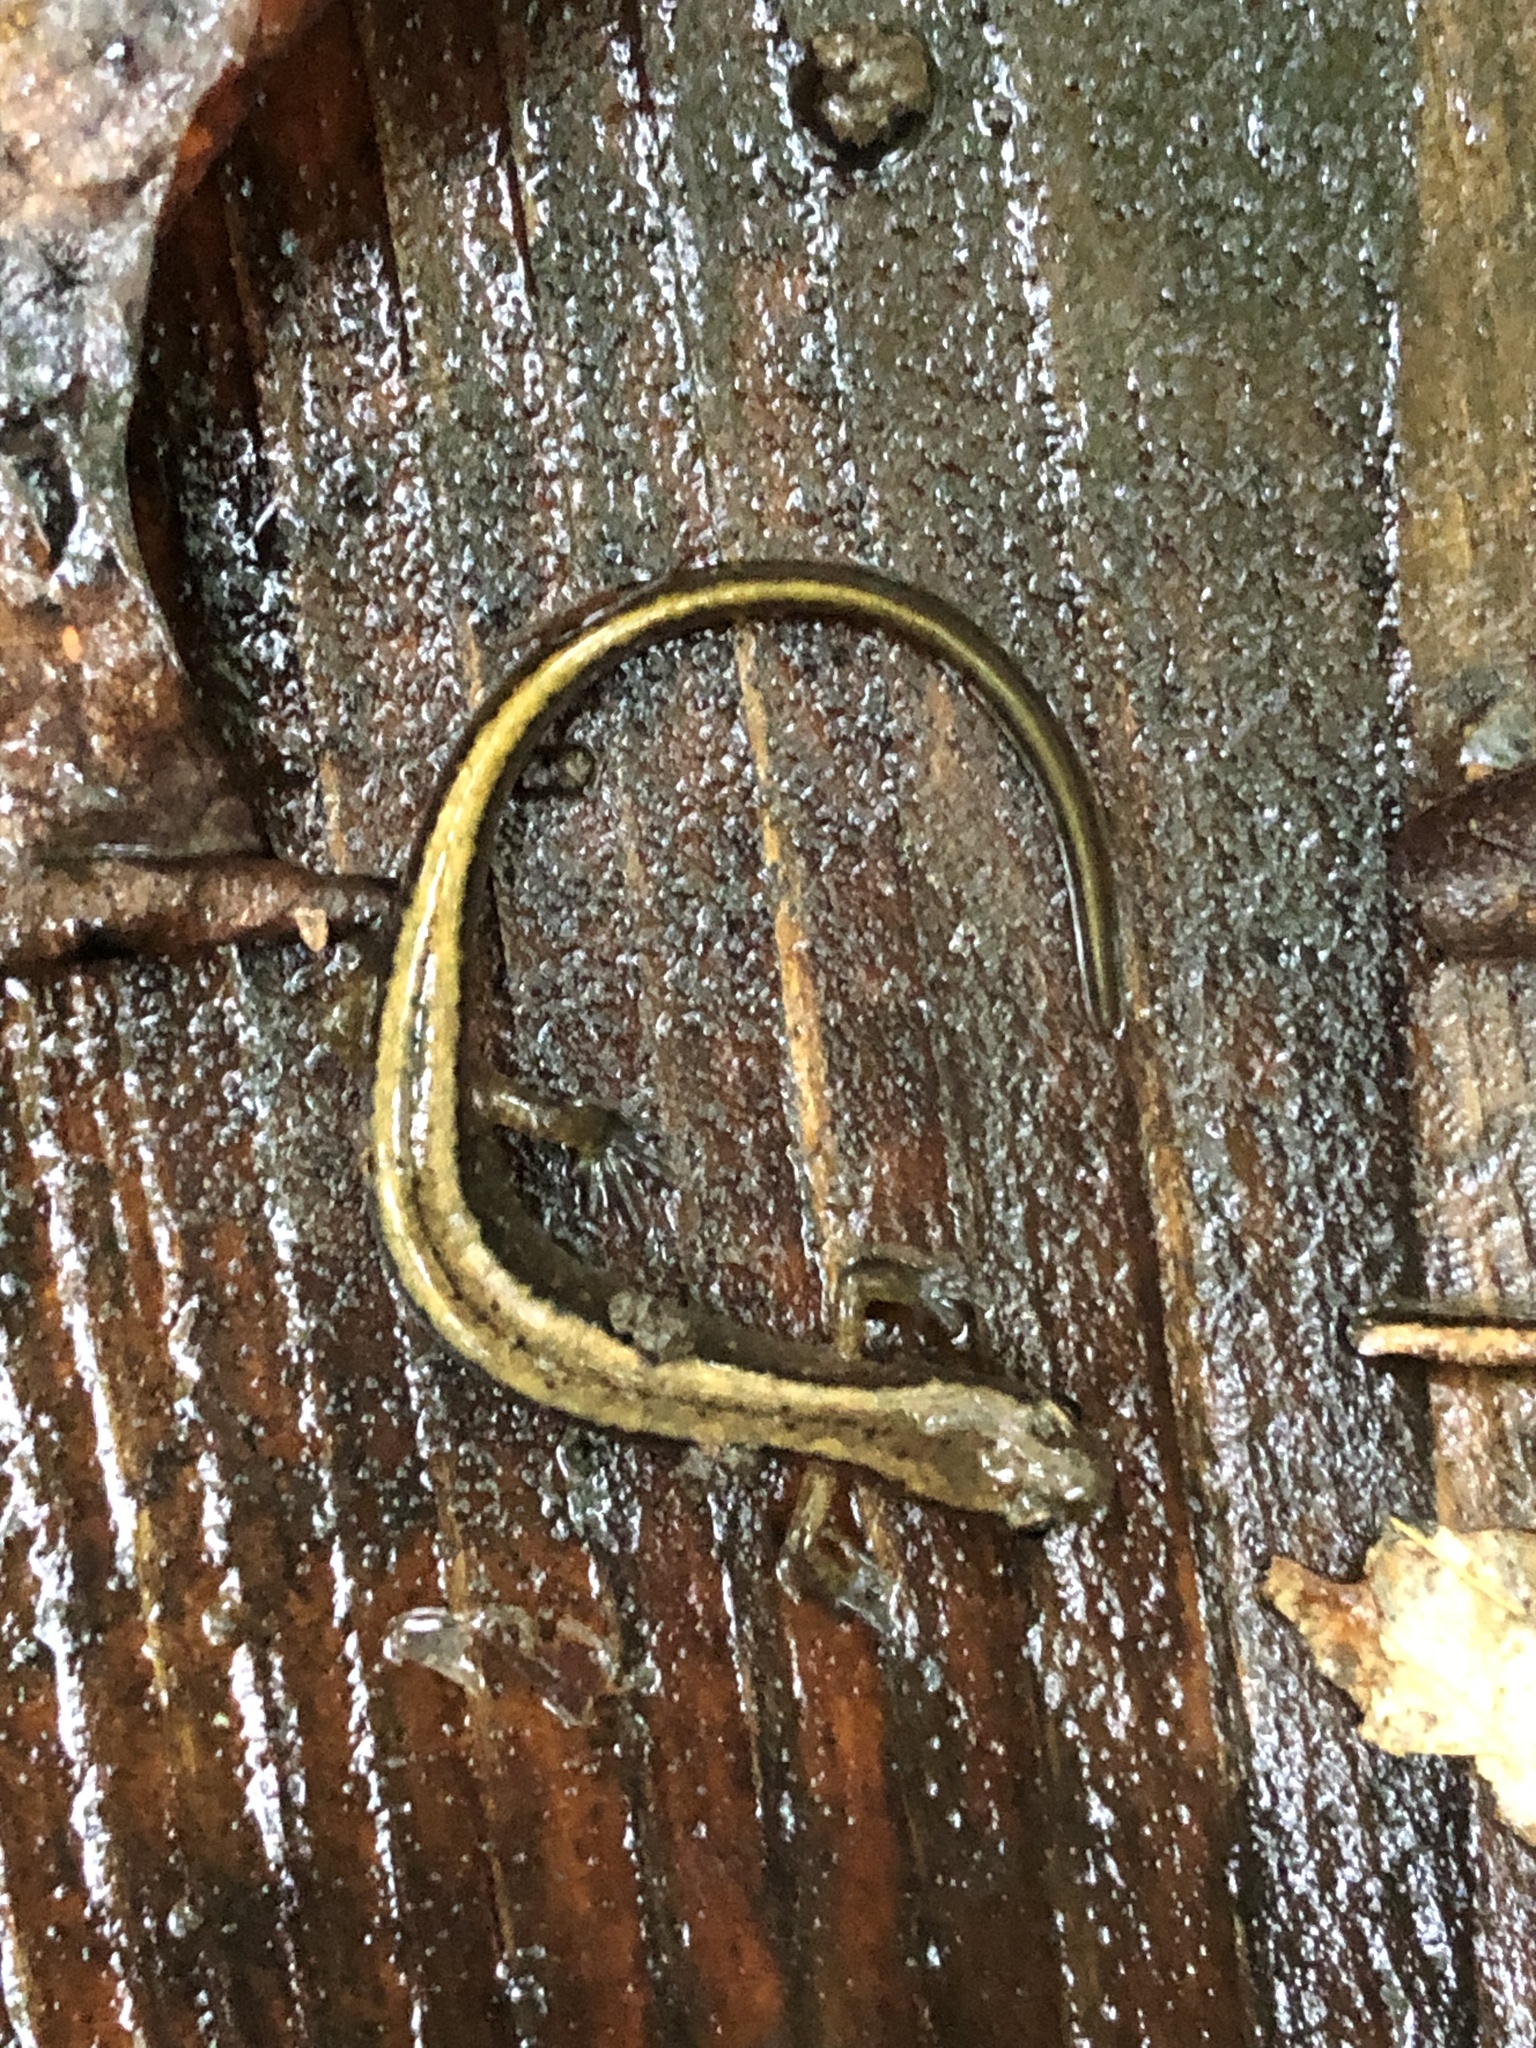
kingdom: Animalia
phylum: Chordata
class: Amphibia
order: Caudata
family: Plethodontidae
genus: Eurycea
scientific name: Eurycea bislineata
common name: Northern two-lined salamander
